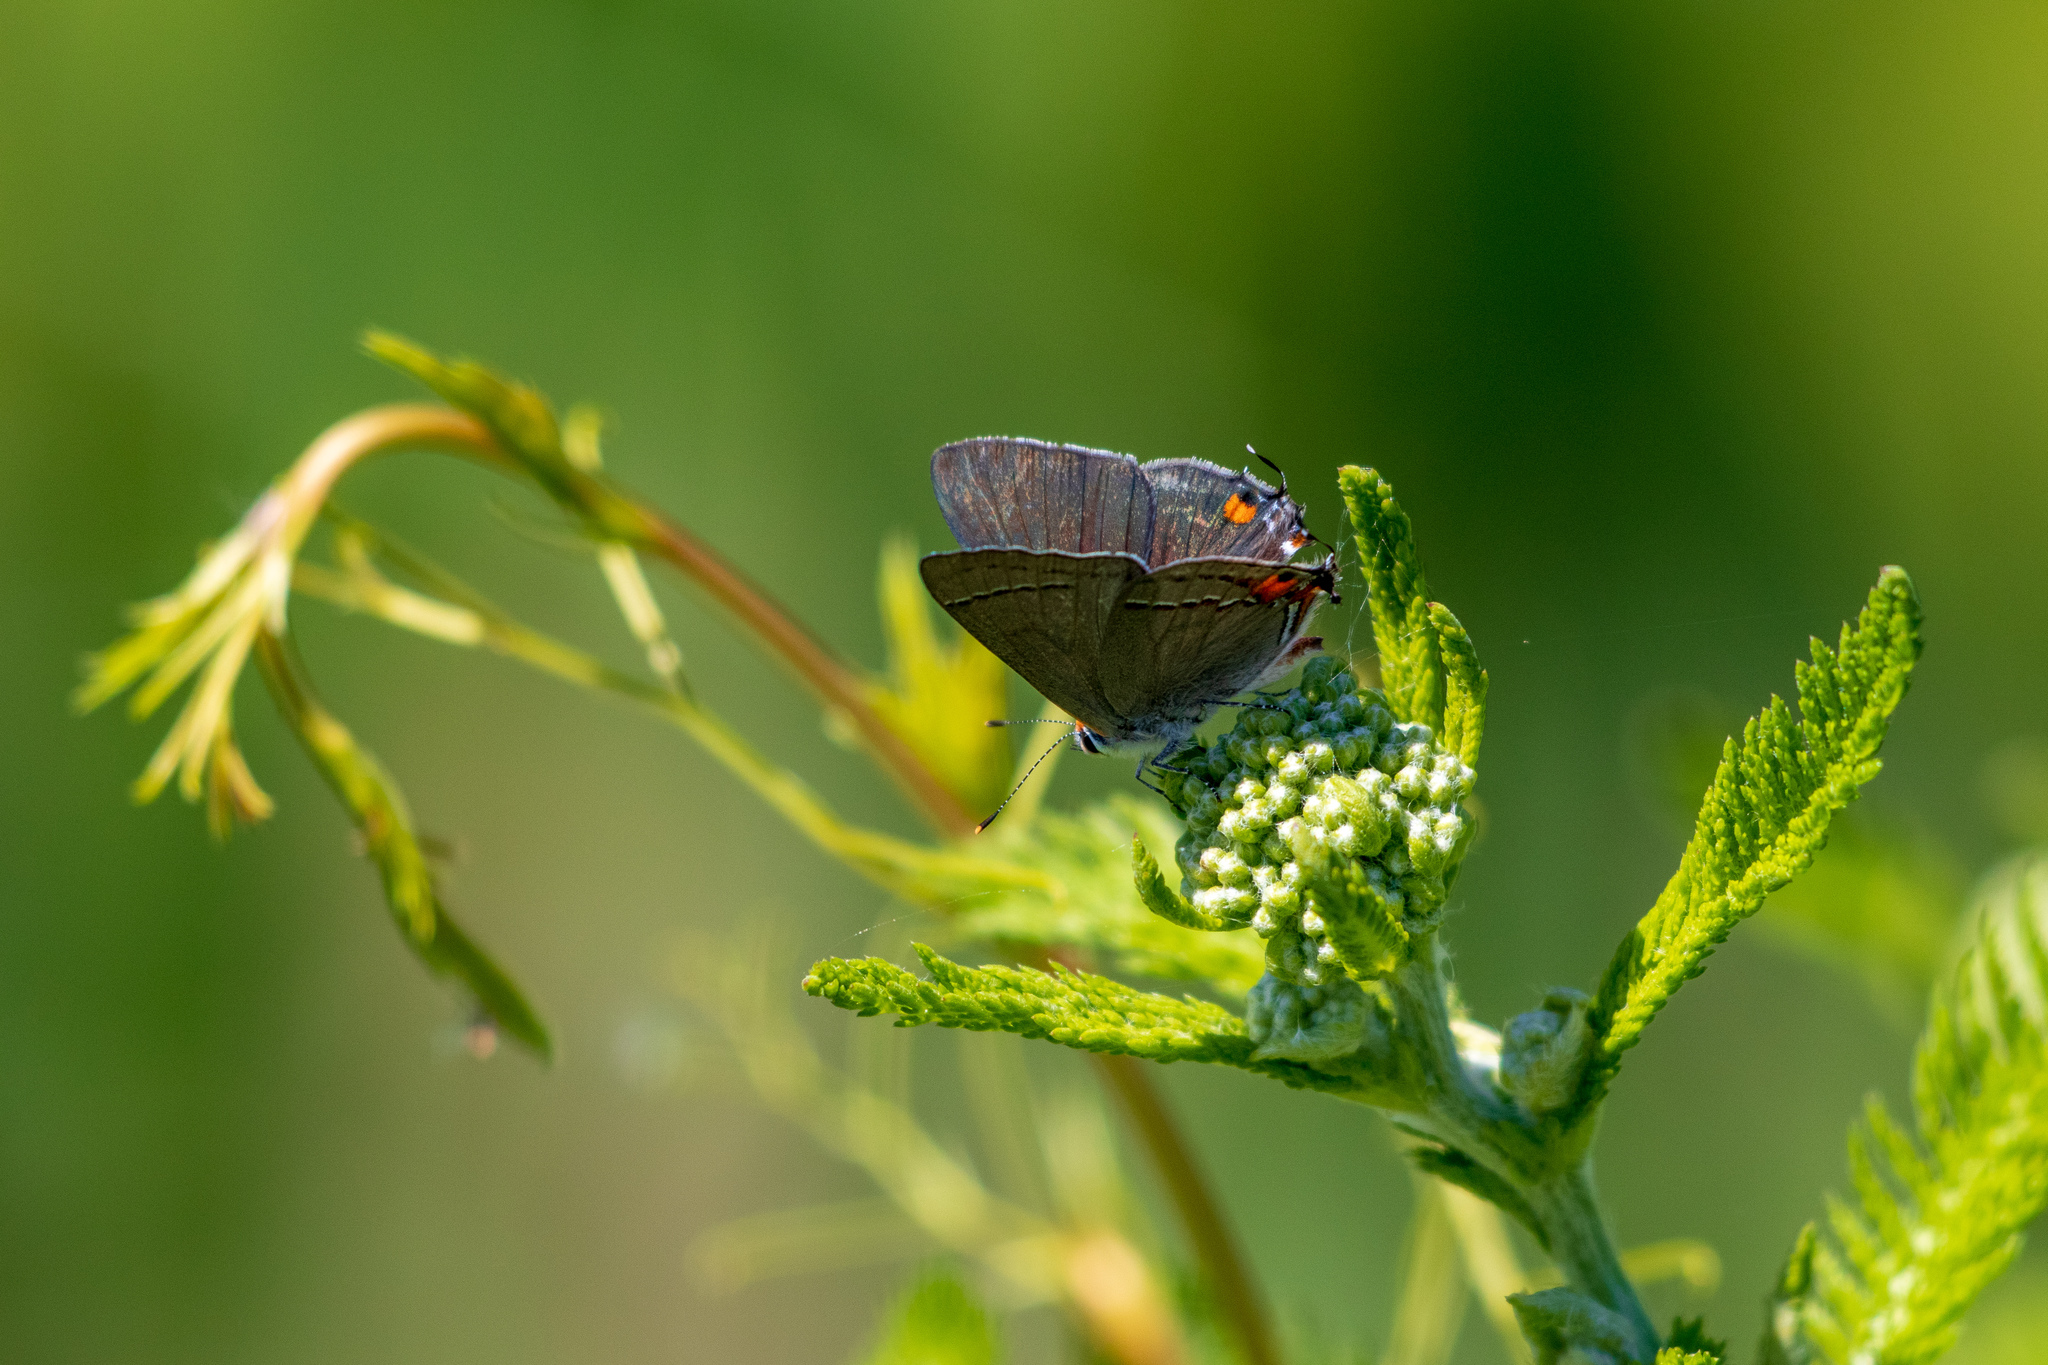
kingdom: Animalia
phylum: Arthropoda
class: Insecta
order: Lepidoptera
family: Lycaenidae
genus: Strymon
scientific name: Strymon melinus
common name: Gray hairstreak
